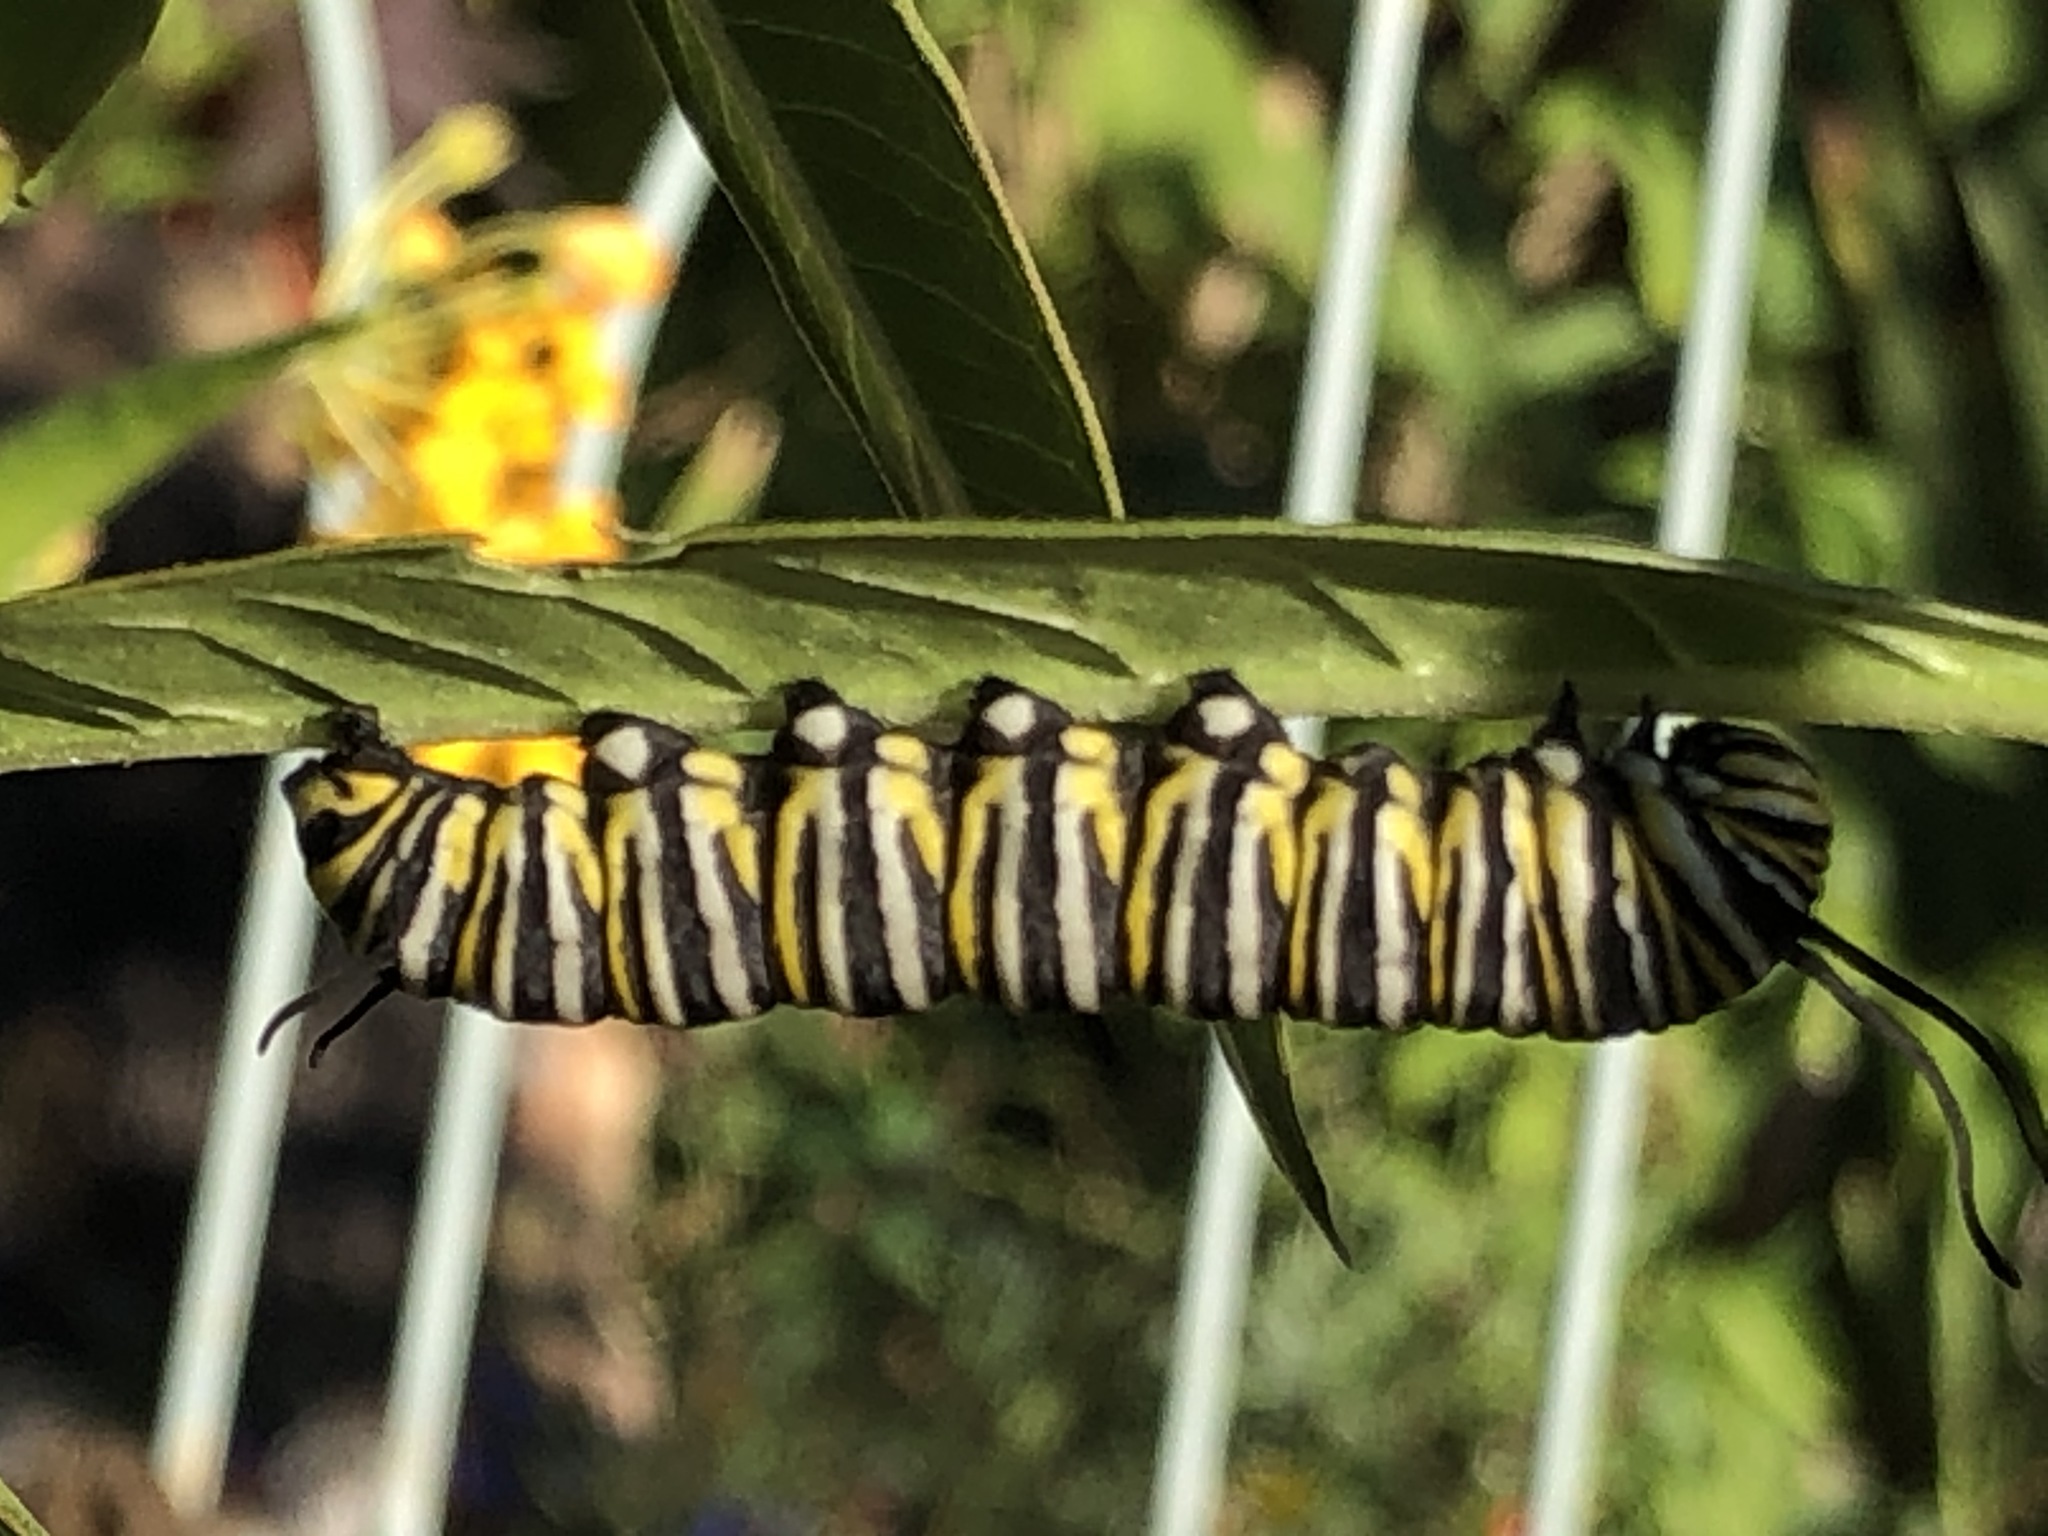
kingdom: Animalia
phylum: Arthropoda
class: Insecta
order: Lepidoptera
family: Nymphalidae
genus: Danaus
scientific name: Danaus plexippus
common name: Monarch
